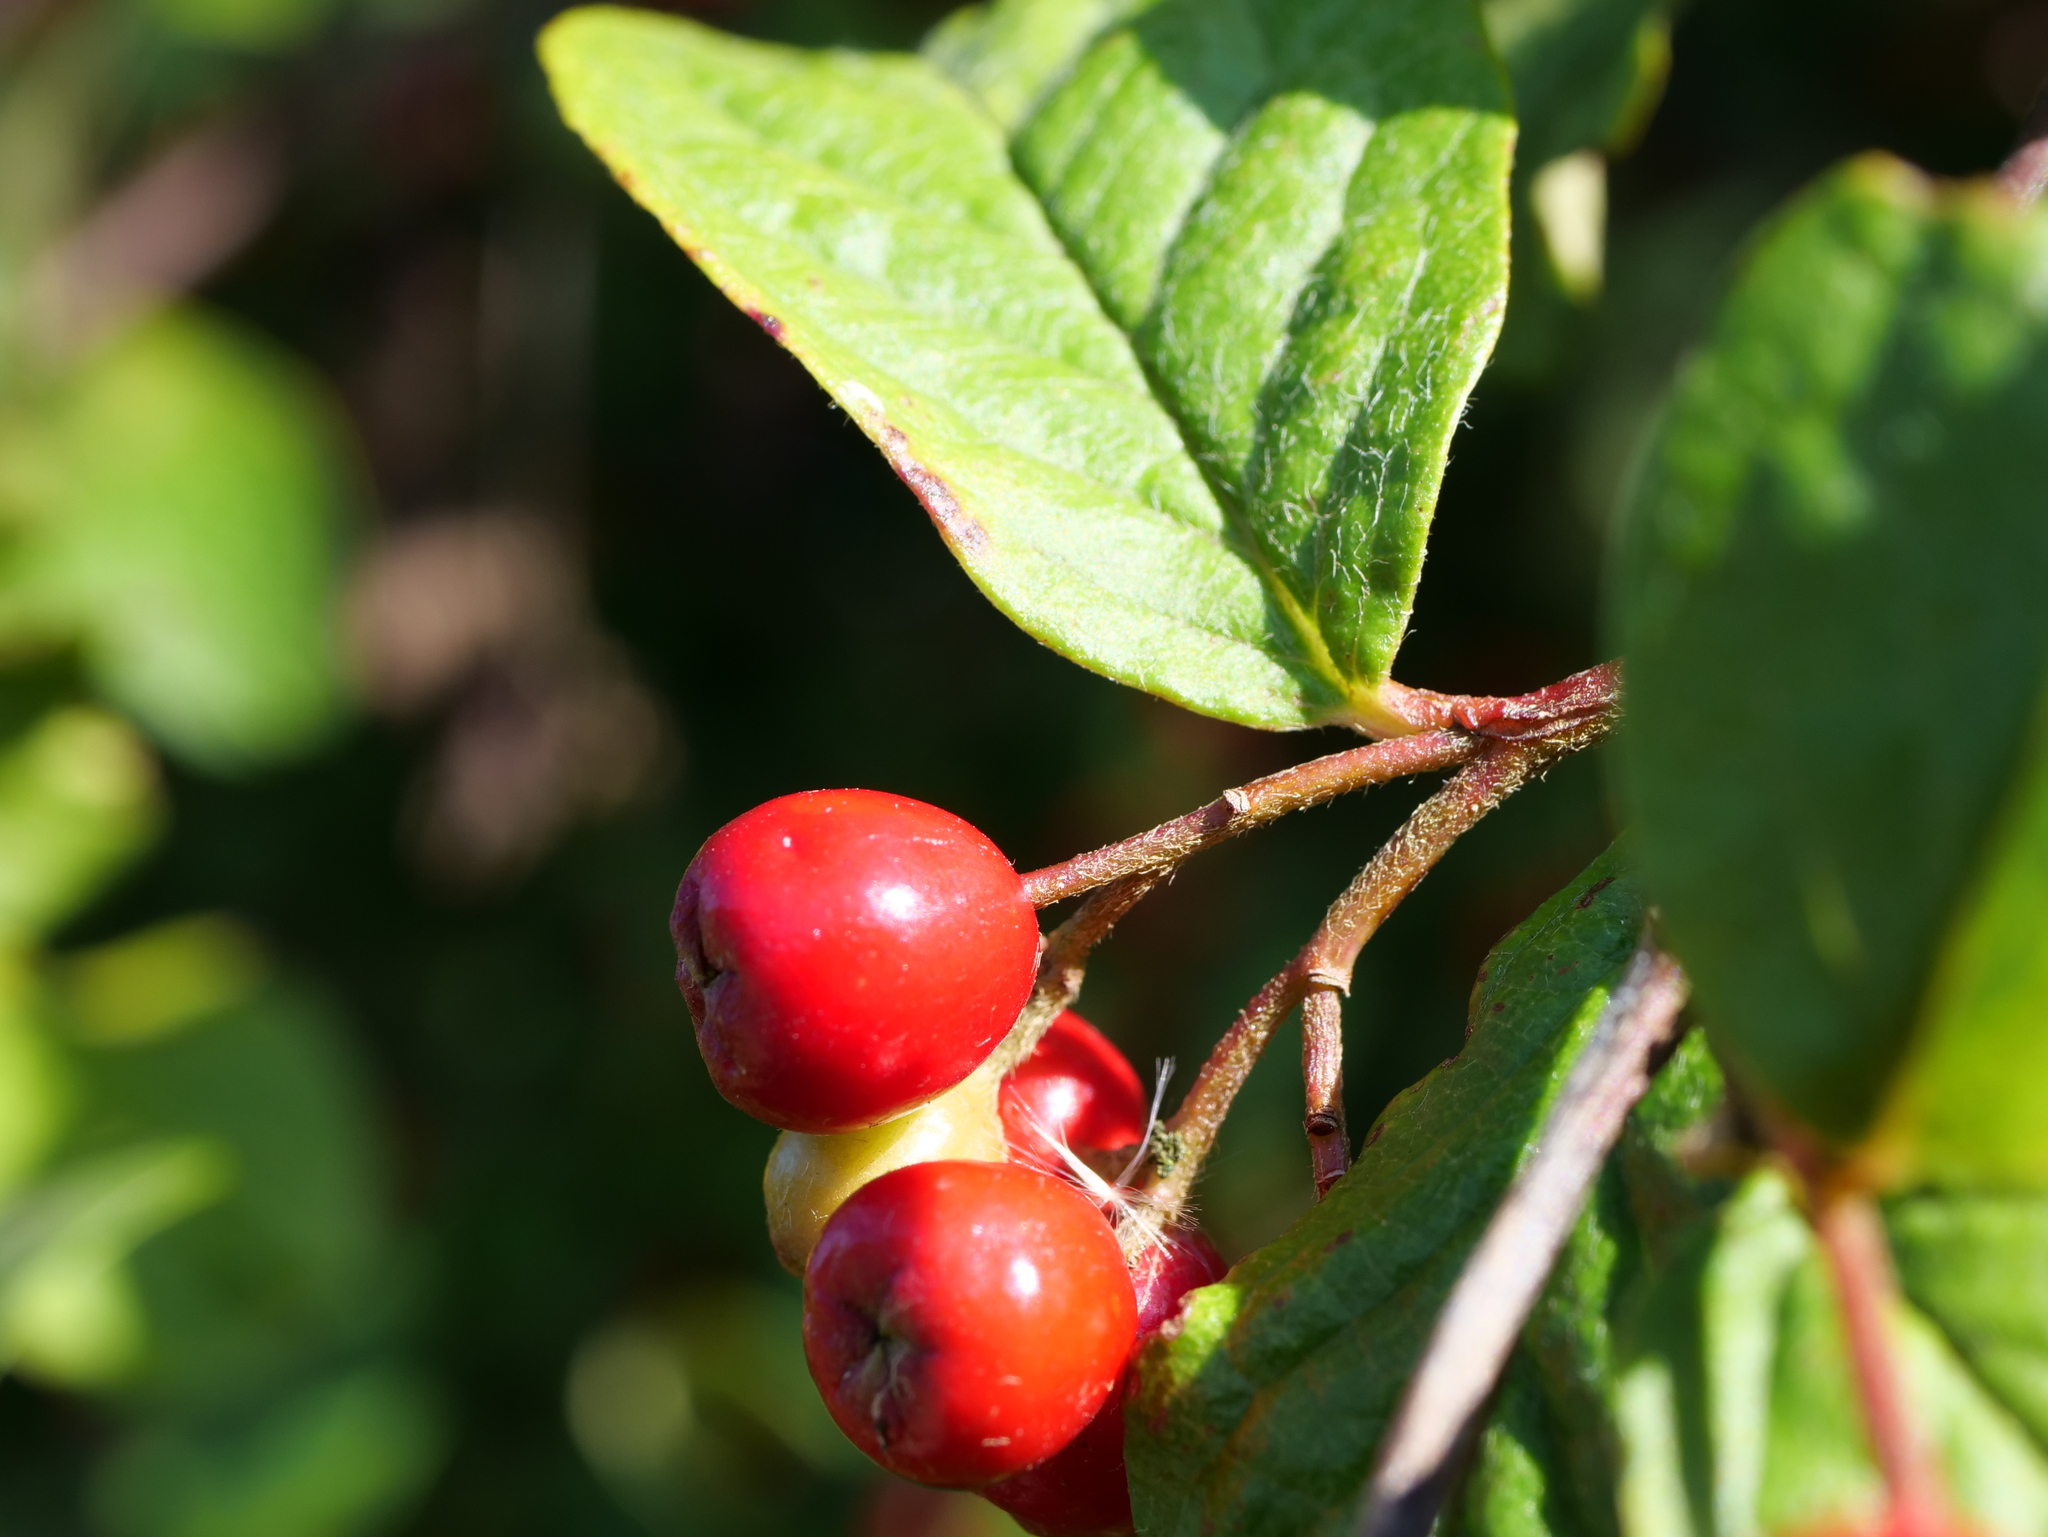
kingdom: Plantae
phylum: Tracheophyta
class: Magnoliopsida
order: Rosales
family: Rosaceae
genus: Cotoneaster
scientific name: Cotoneaster bullatus
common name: Hollyberry cotoneaster
